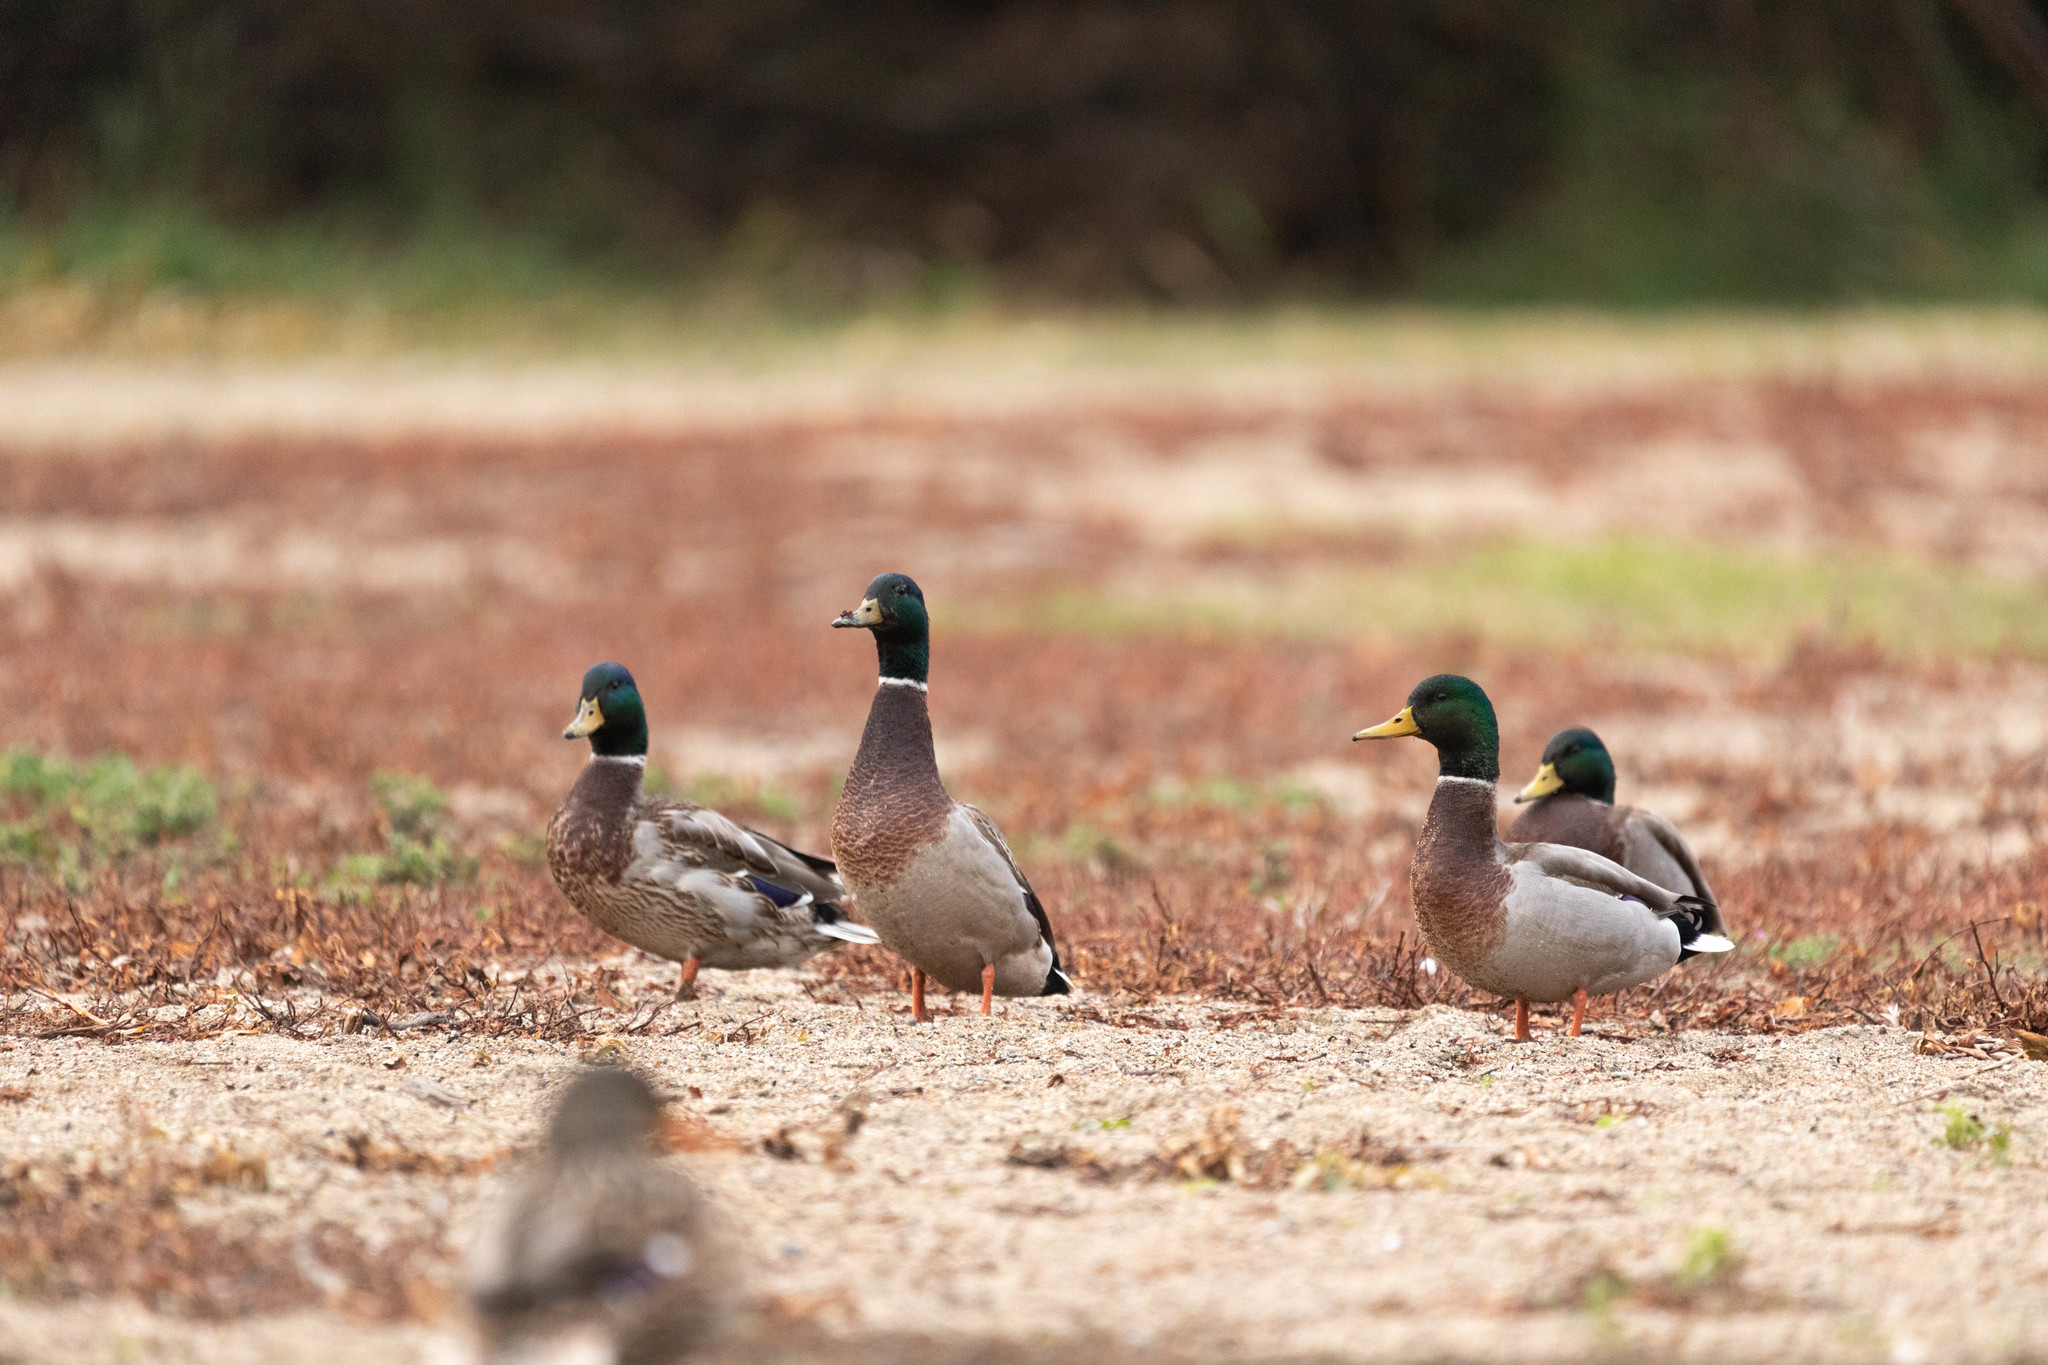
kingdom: Animalia
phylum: Chordata
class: Aves
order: Anseriformes
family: Anatidae
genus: Anas
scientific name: Anas platyrhynchos
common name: Mallard
